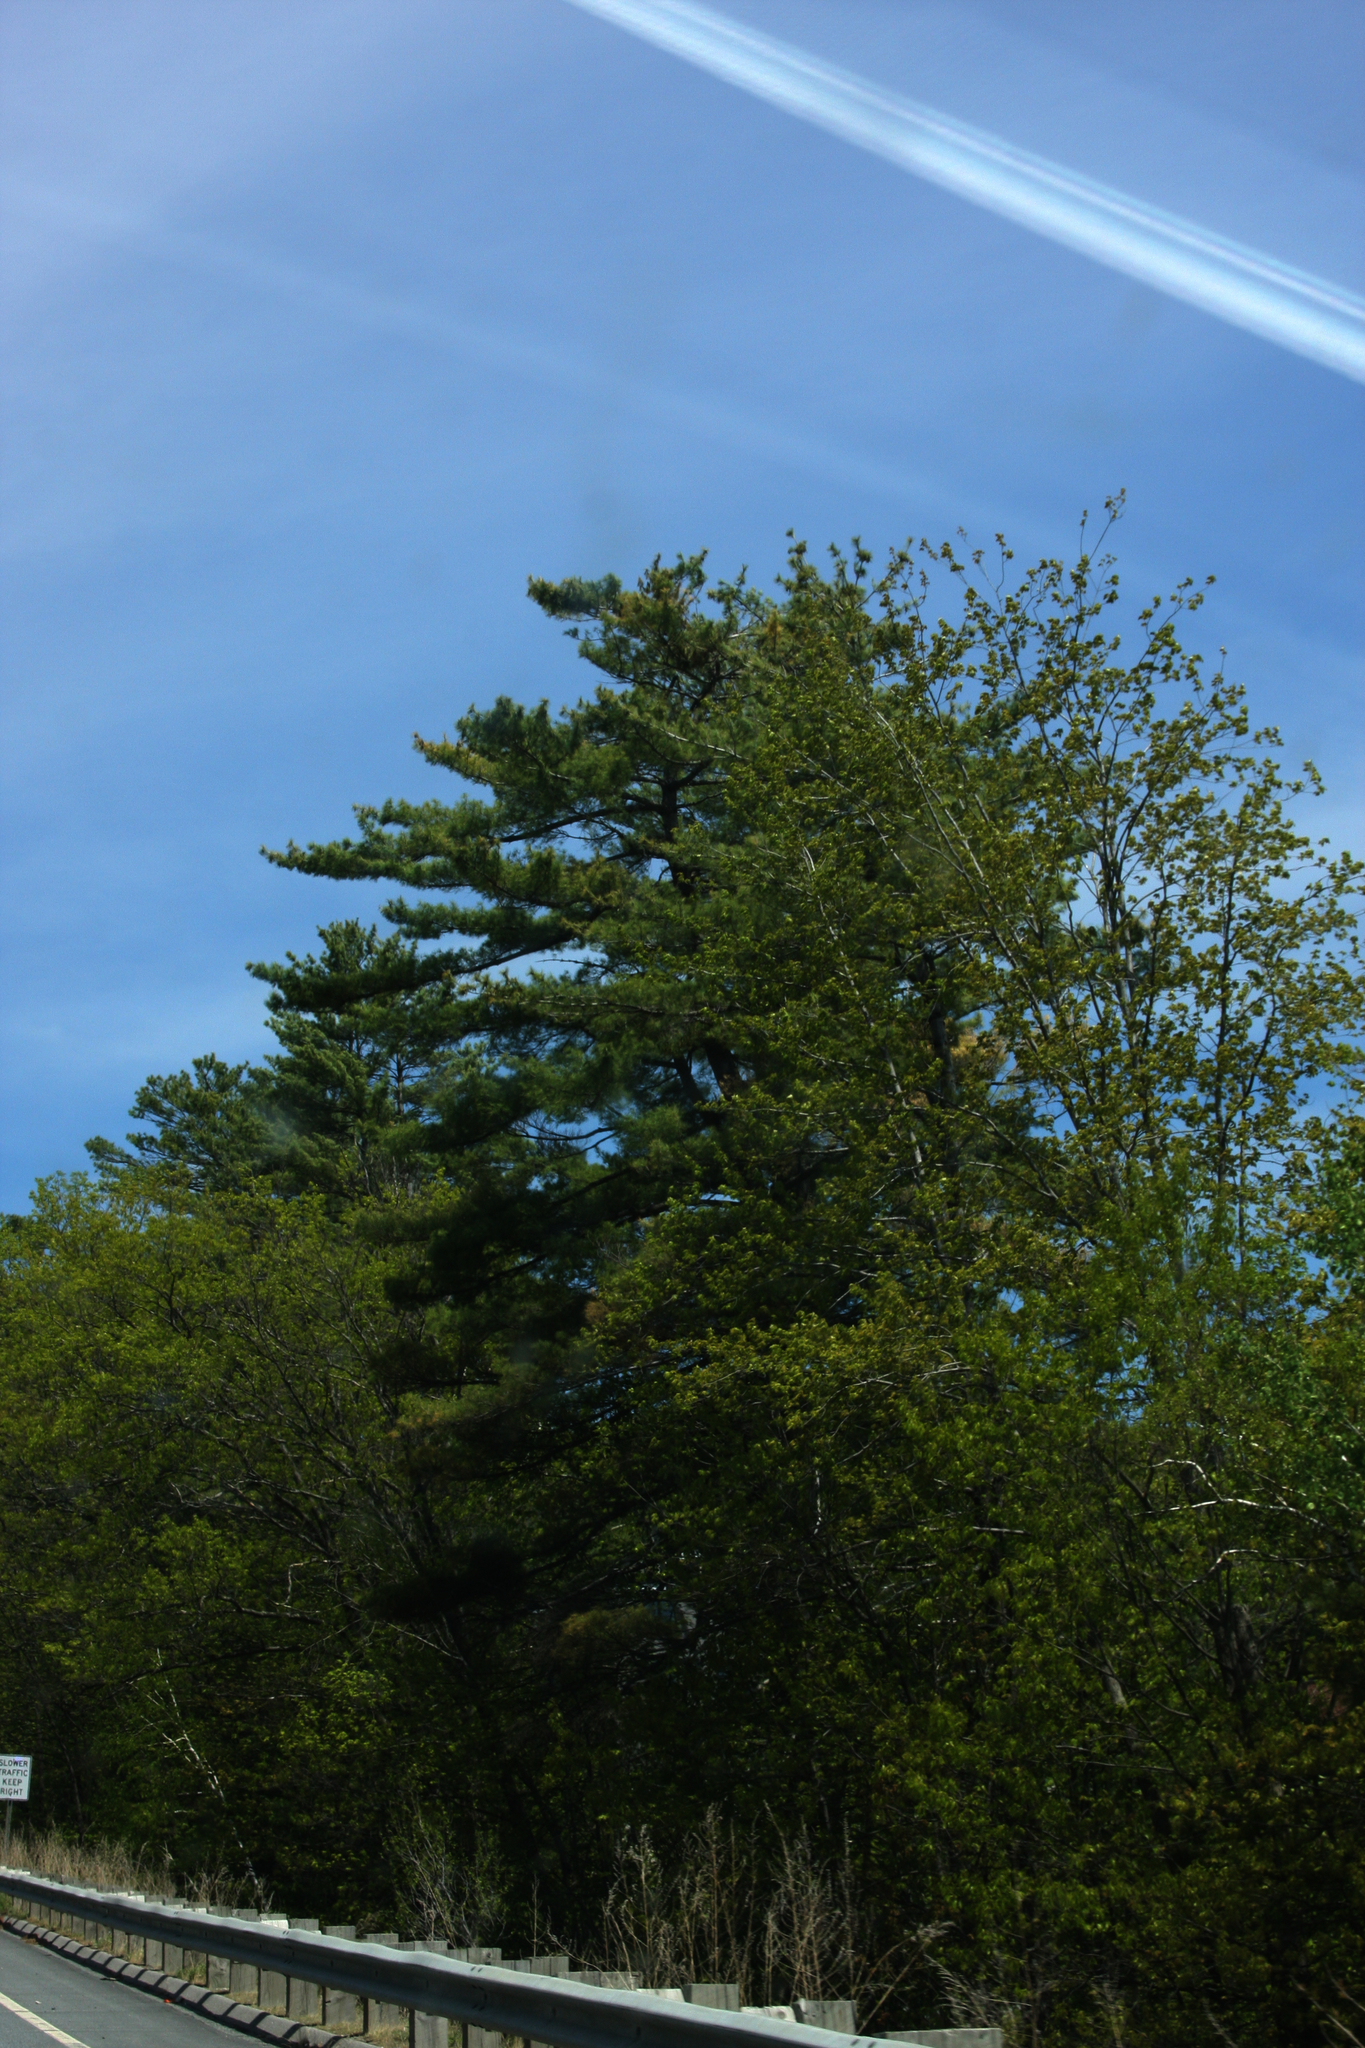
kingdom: Plantae
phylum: Tracheophyta
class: Pinopsida
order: Pinales
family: Pinaceae
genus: Pinus
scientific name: Pinus strobus
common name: Weymouth pine
